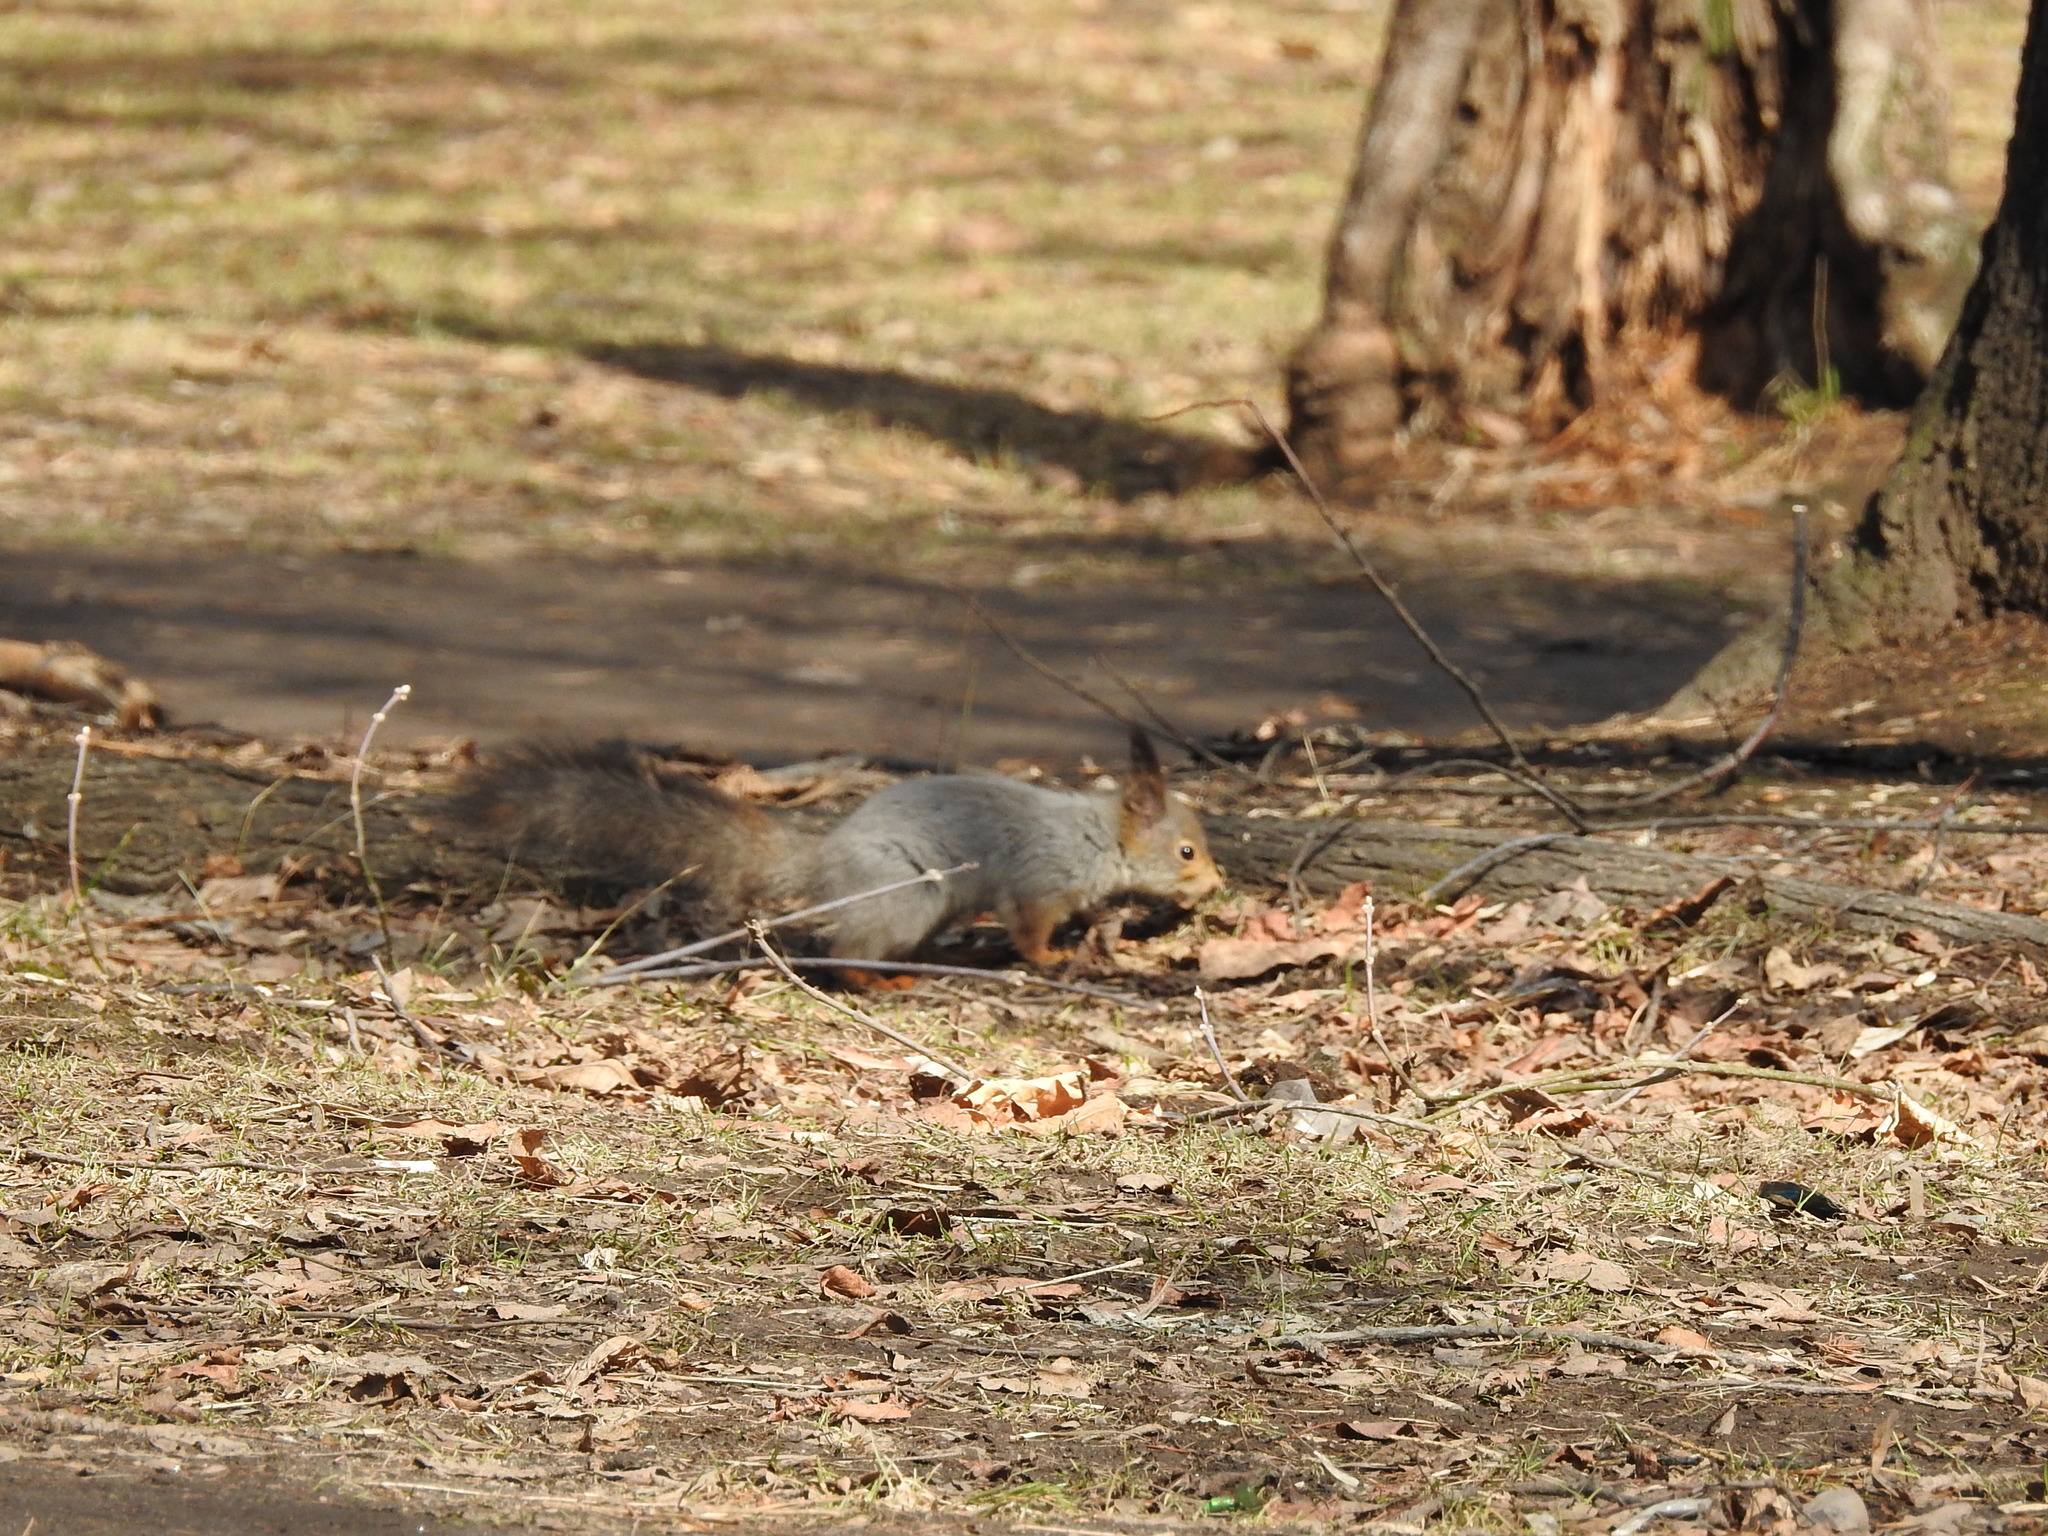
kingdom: Animalia
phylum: Chordata
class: Mammalia
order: Rodentia
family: Sciuridae
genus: Sciurus
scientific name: Sciurus vulgaris
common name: Eurasian red squirrel
